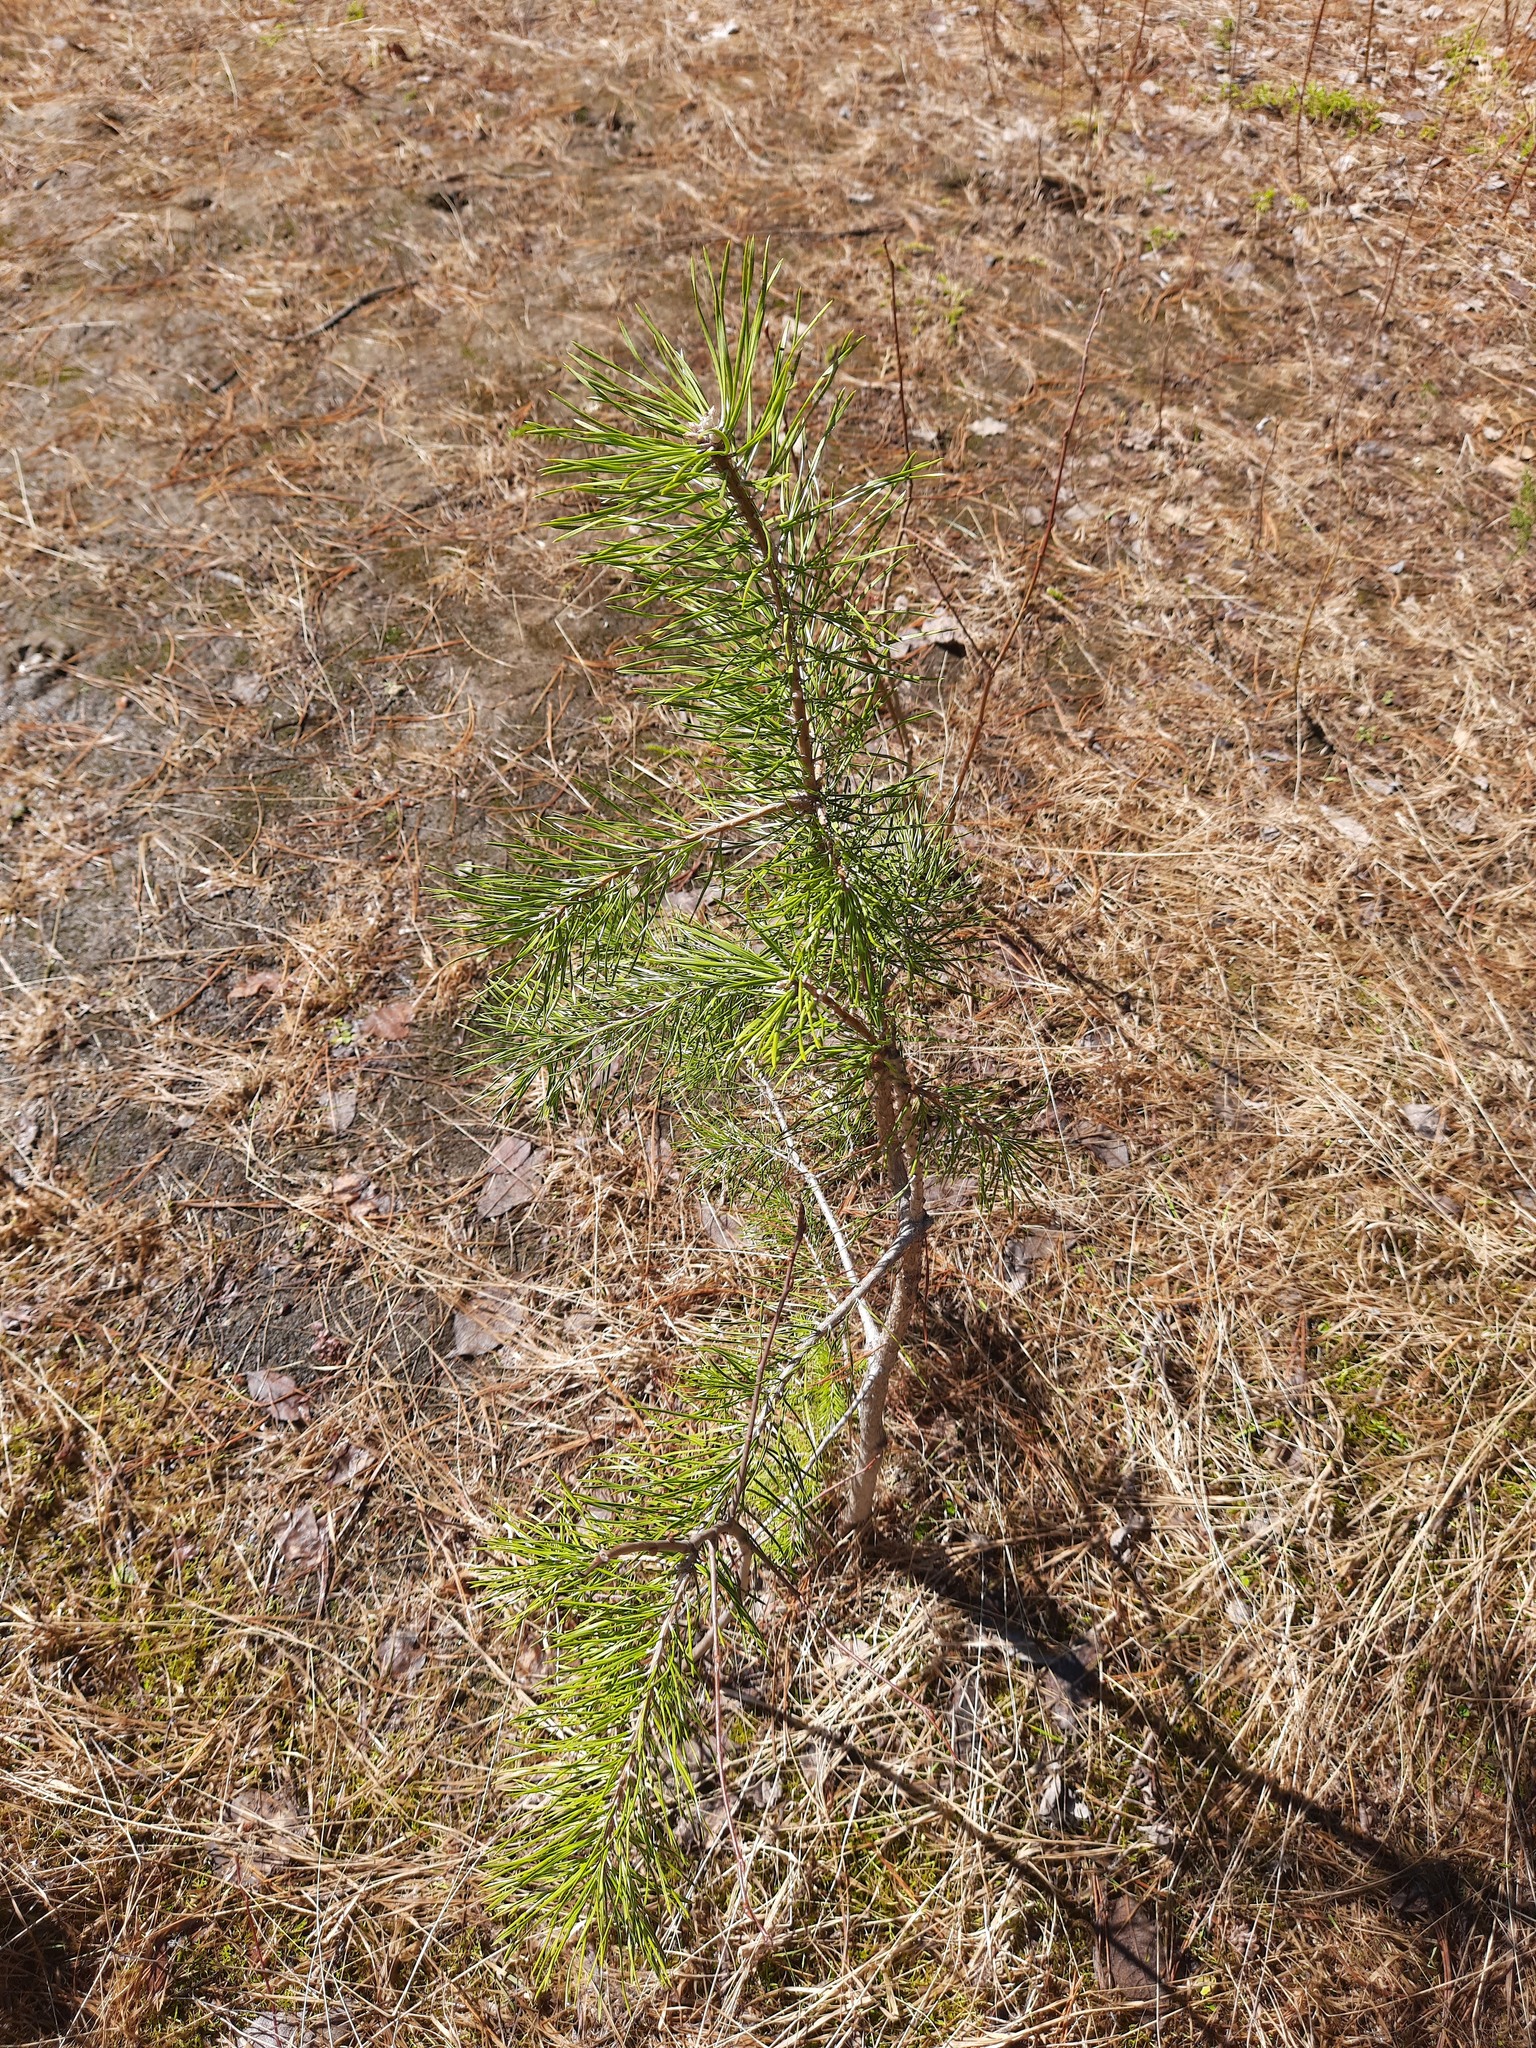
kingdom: Plantae
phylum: Tracheophyta
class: Pinopsida
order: Pinales
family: Pinaceae
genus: Pinus
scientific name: Pinus sylvestris
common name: Scots pine
